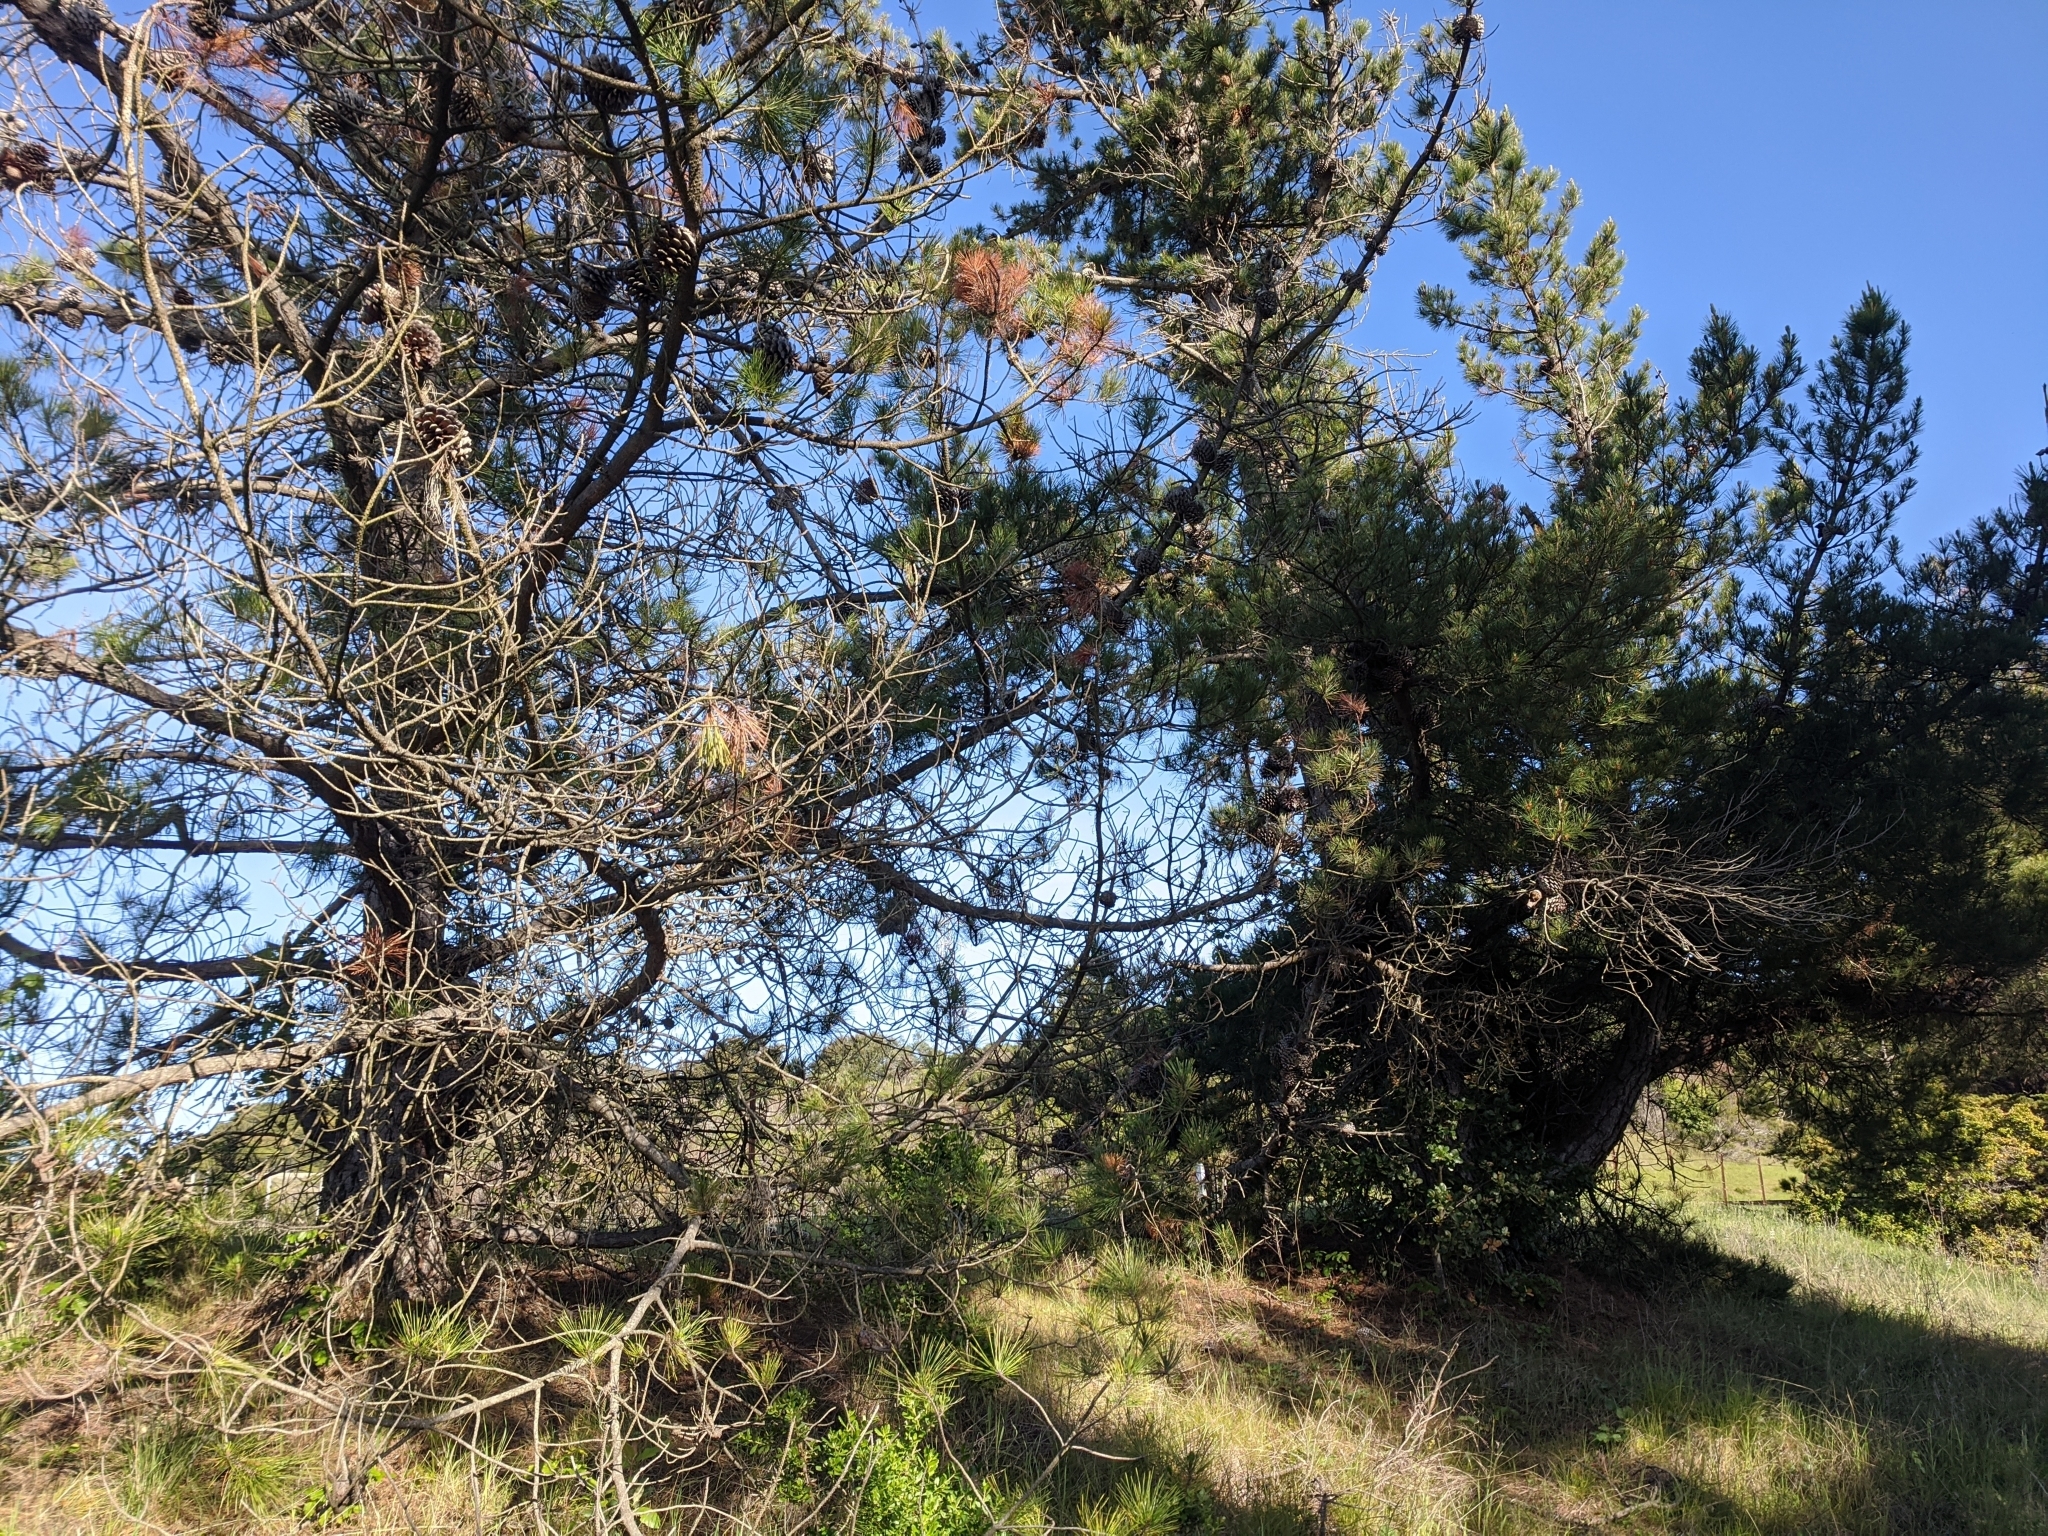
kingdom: Plantae
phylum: Tracheophyta
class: Pinopsida
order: Pinales
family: Pinaceae
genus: Pinus
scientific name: Pinus jeffreyi
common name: Jeffrey pine
